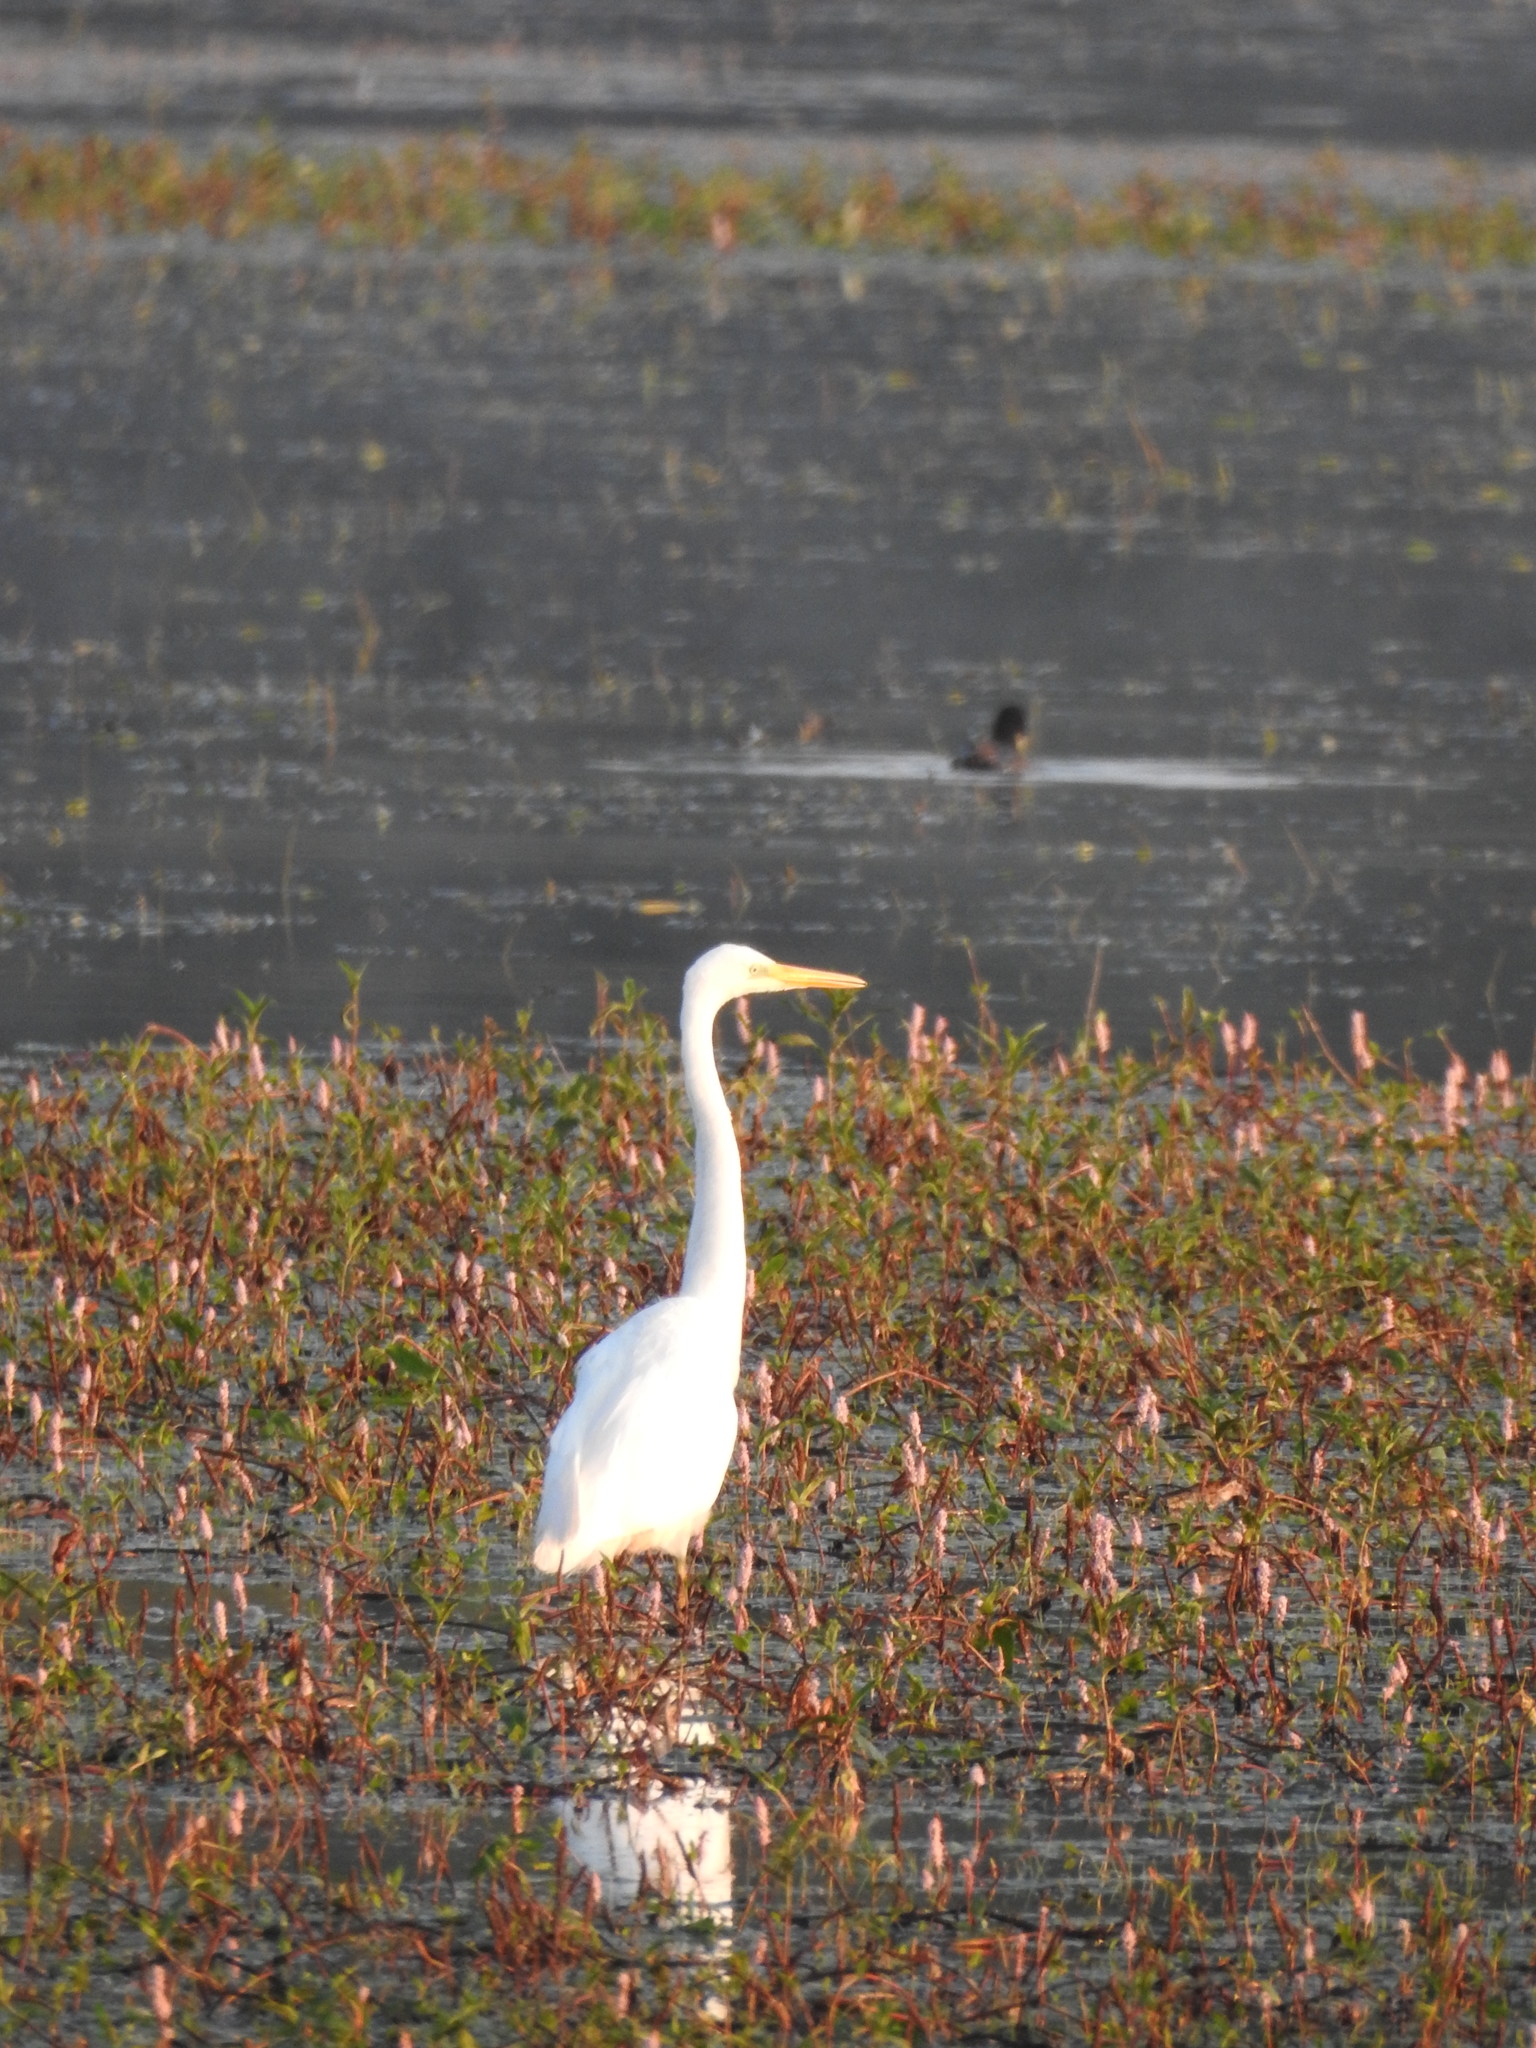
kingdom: Animalia
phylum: Chordata
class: Aves
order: Pelecaniformes
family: Ardeidae
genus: Ardea
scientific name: Ardea alba
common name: Great egret
